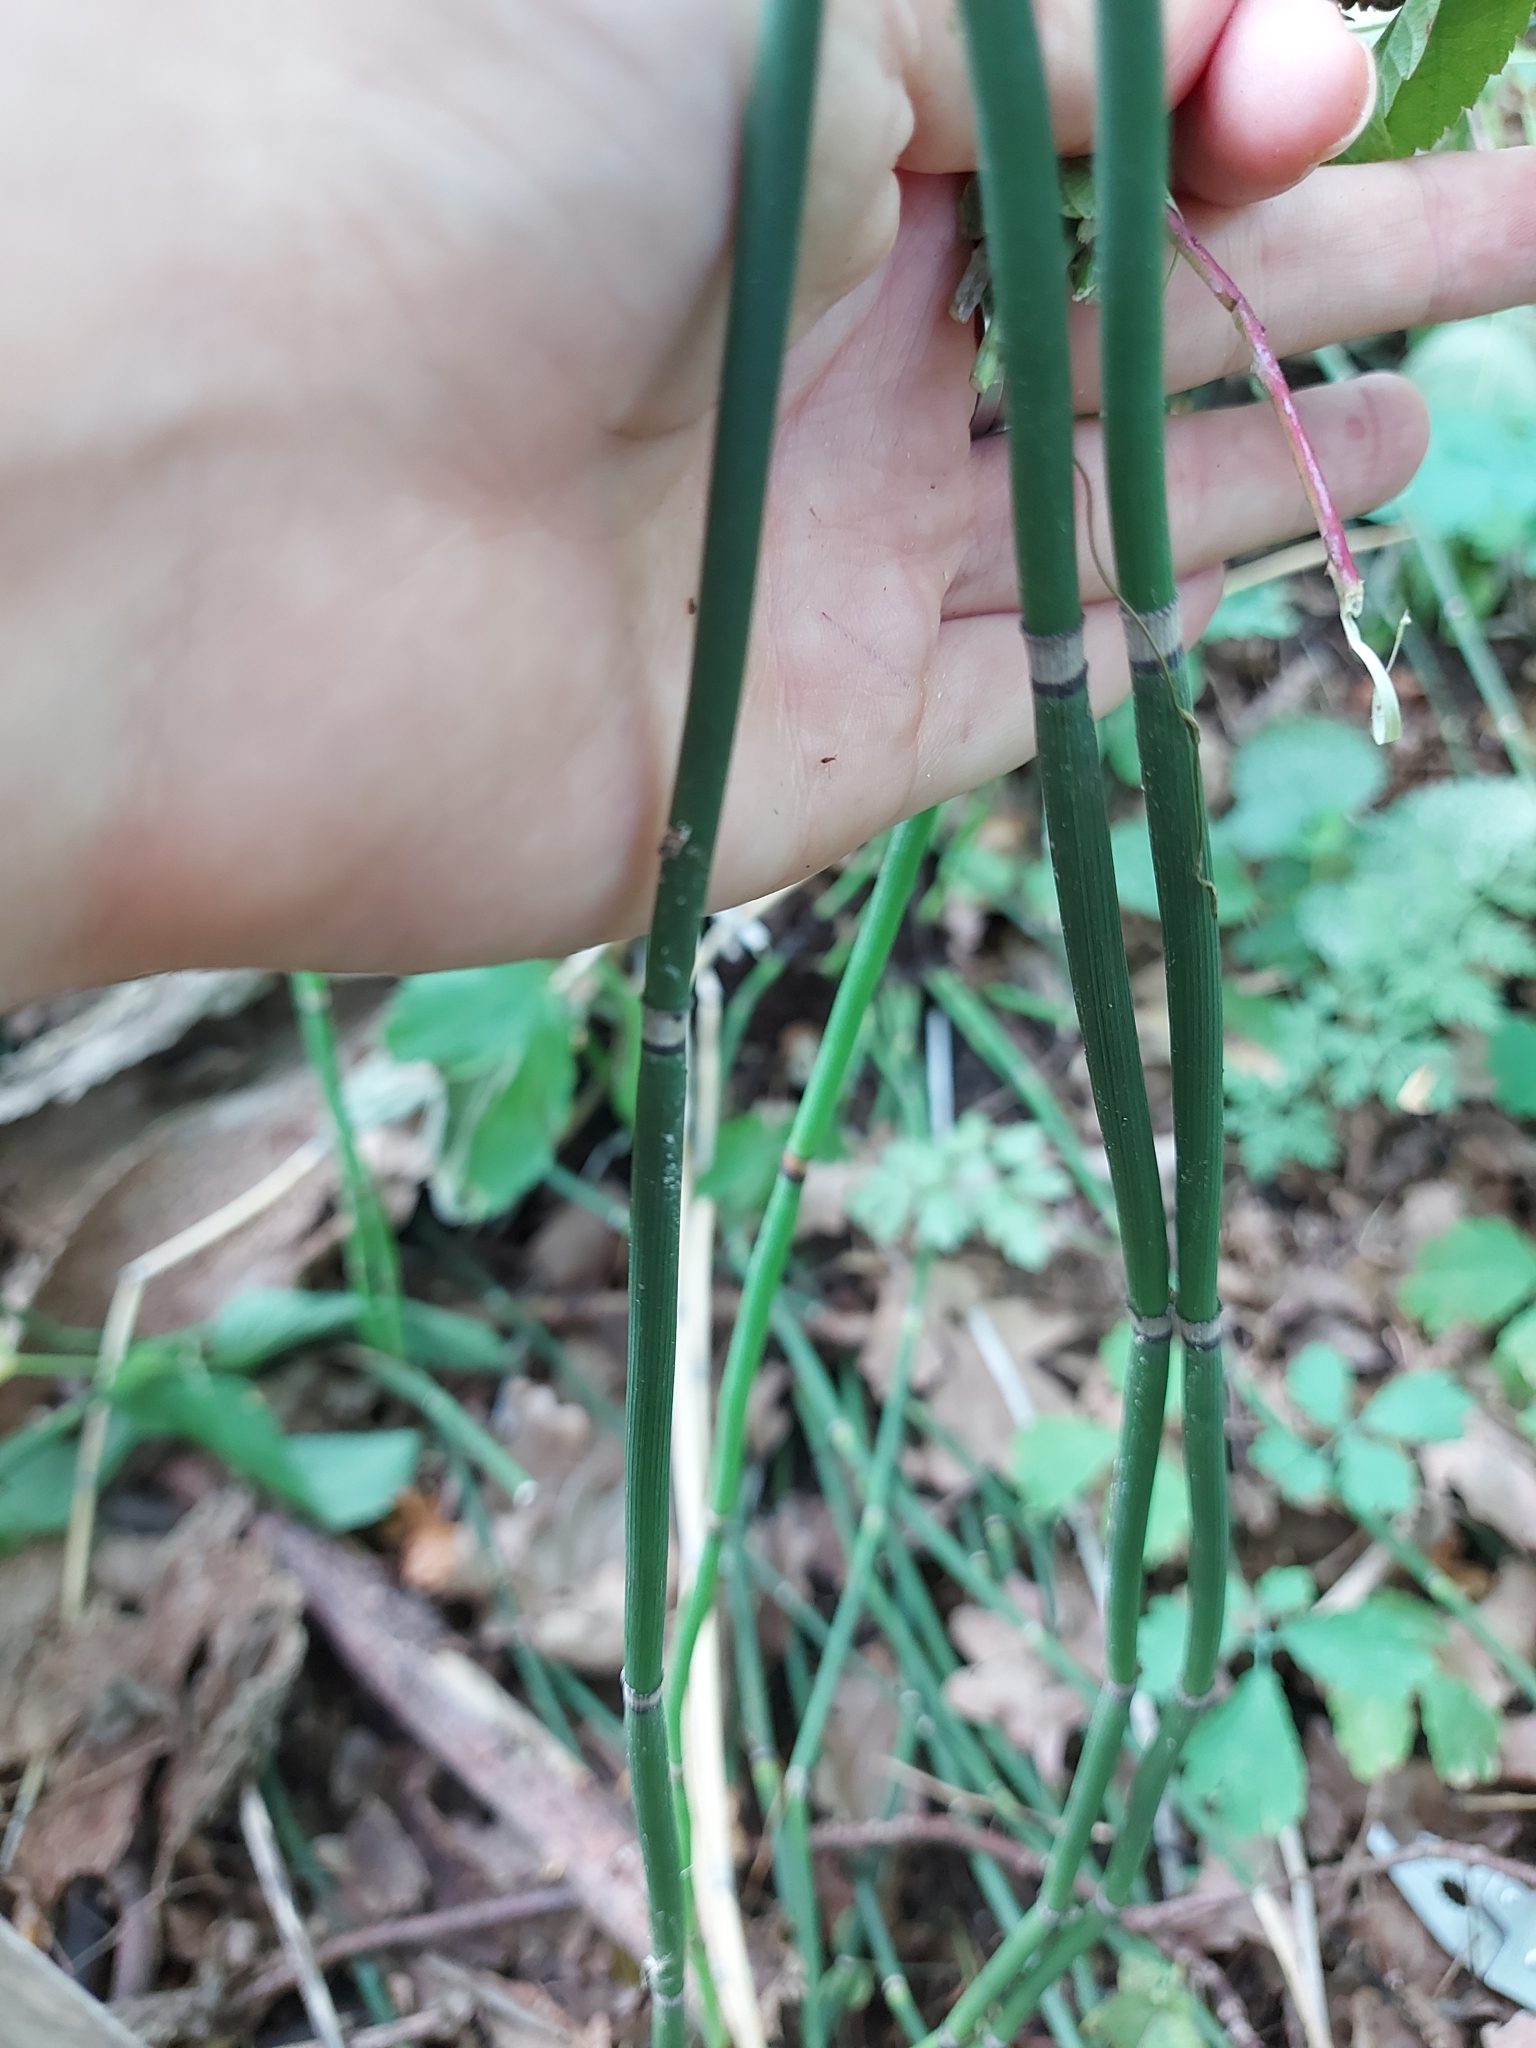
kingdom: Plantae
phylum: Tracheophyta
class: Polypodiopsida
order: Equisetales
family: Equisetaceae
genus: Equisetum
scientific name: Equisetum hyemale
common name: Rough horsetail
